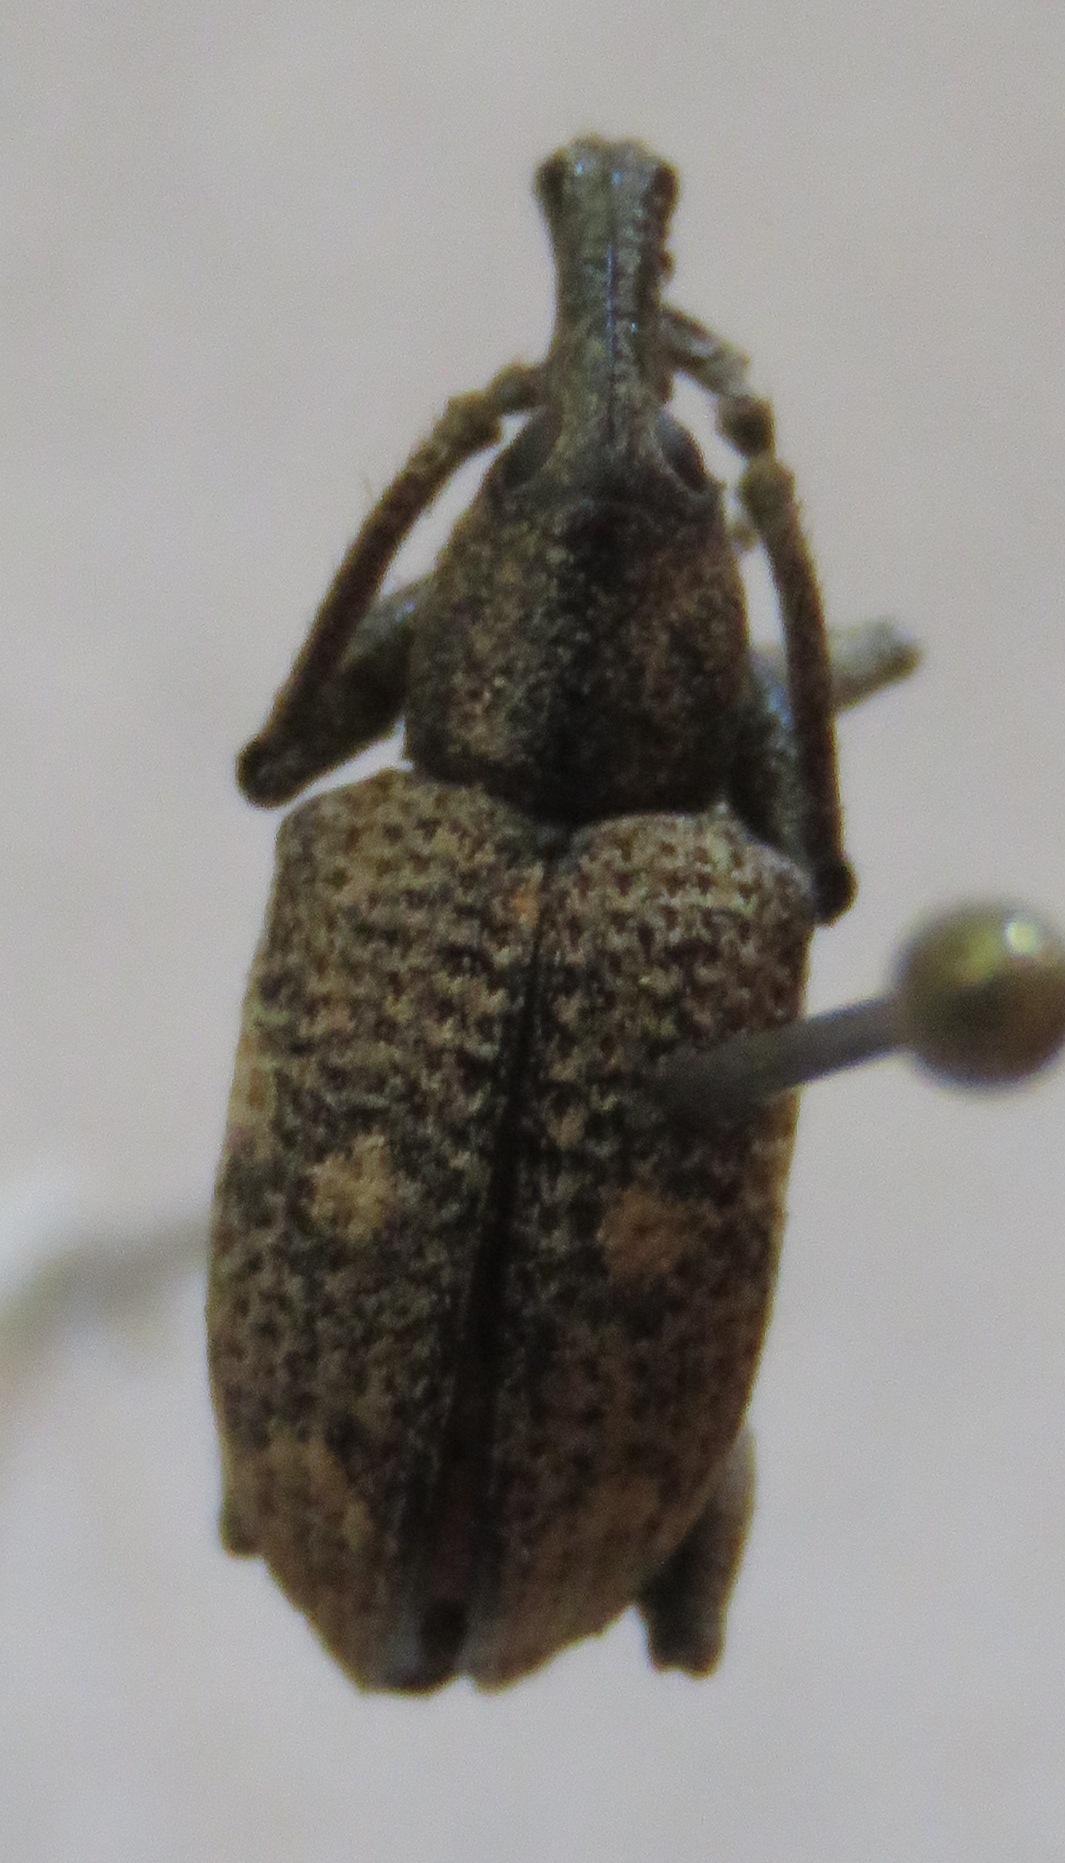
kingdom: Animalia
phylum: Arthropoda
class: Insecta
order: Coleoptera
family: Curculionidae
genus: Hypoptus
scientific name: Hypoptus macularis
